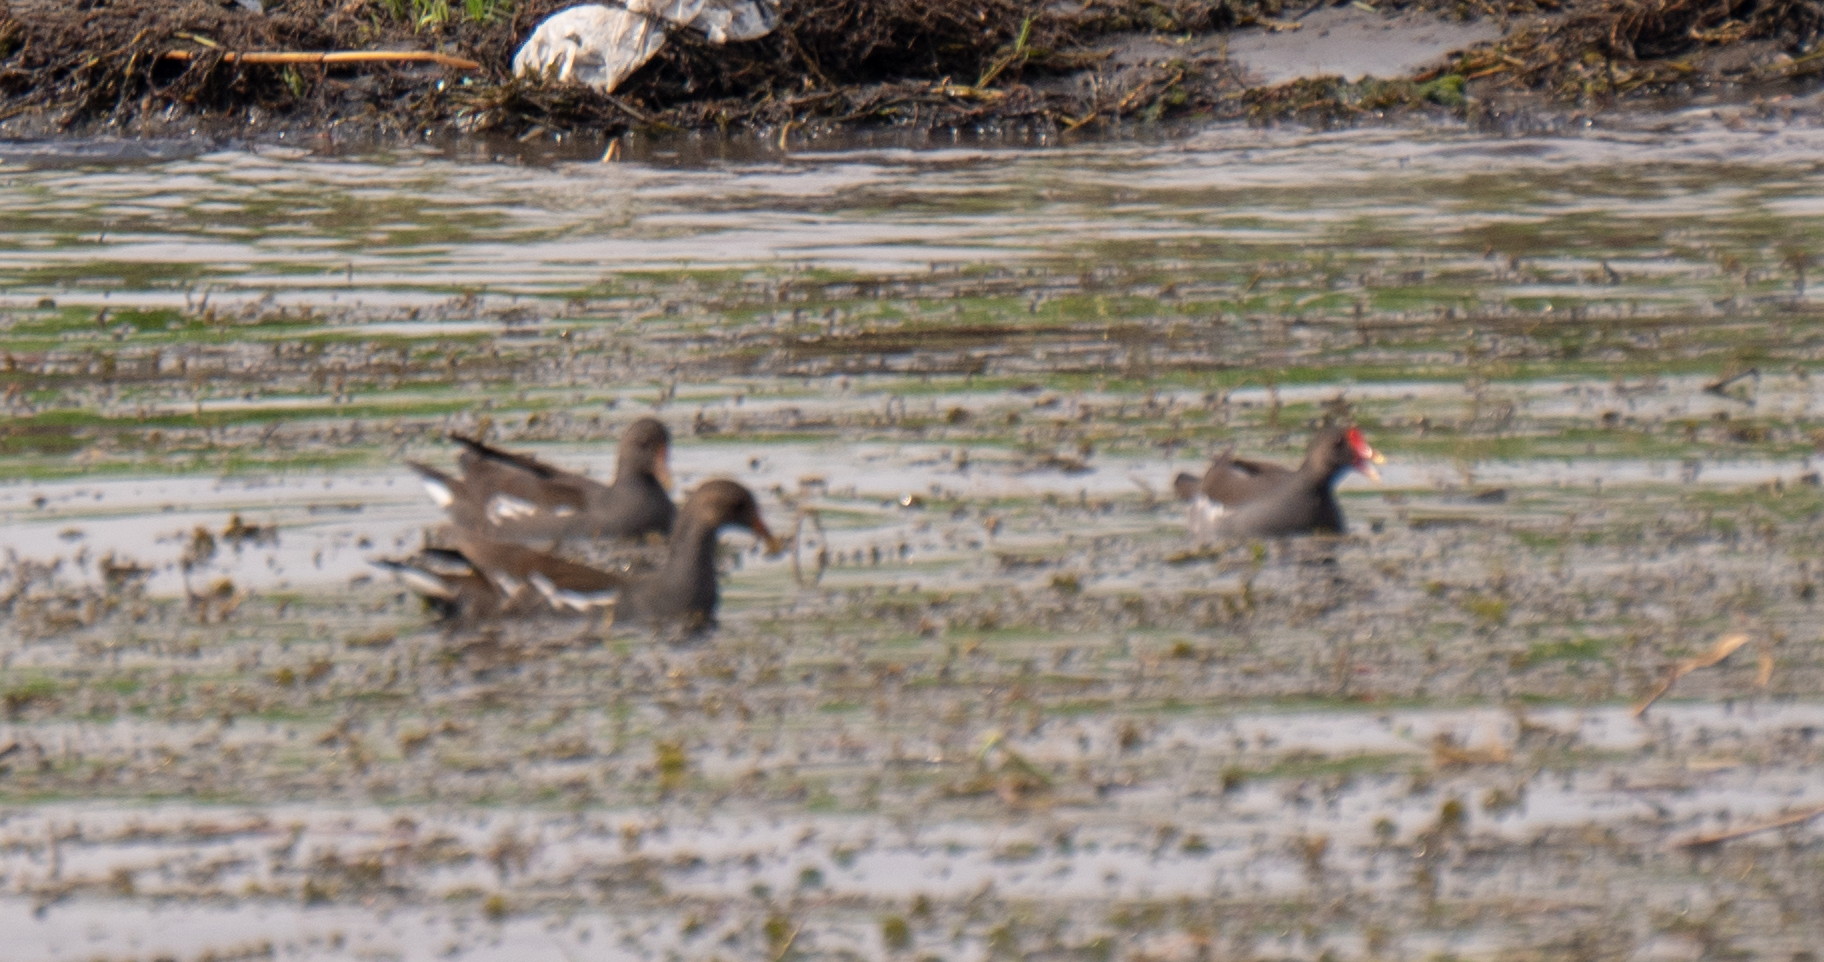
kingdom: Animalia
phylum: Chordata
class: Aves
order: Gruiformes
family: Rallidae
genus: Gallinula
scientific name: Gallinula chloropus
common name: Common moorhen
